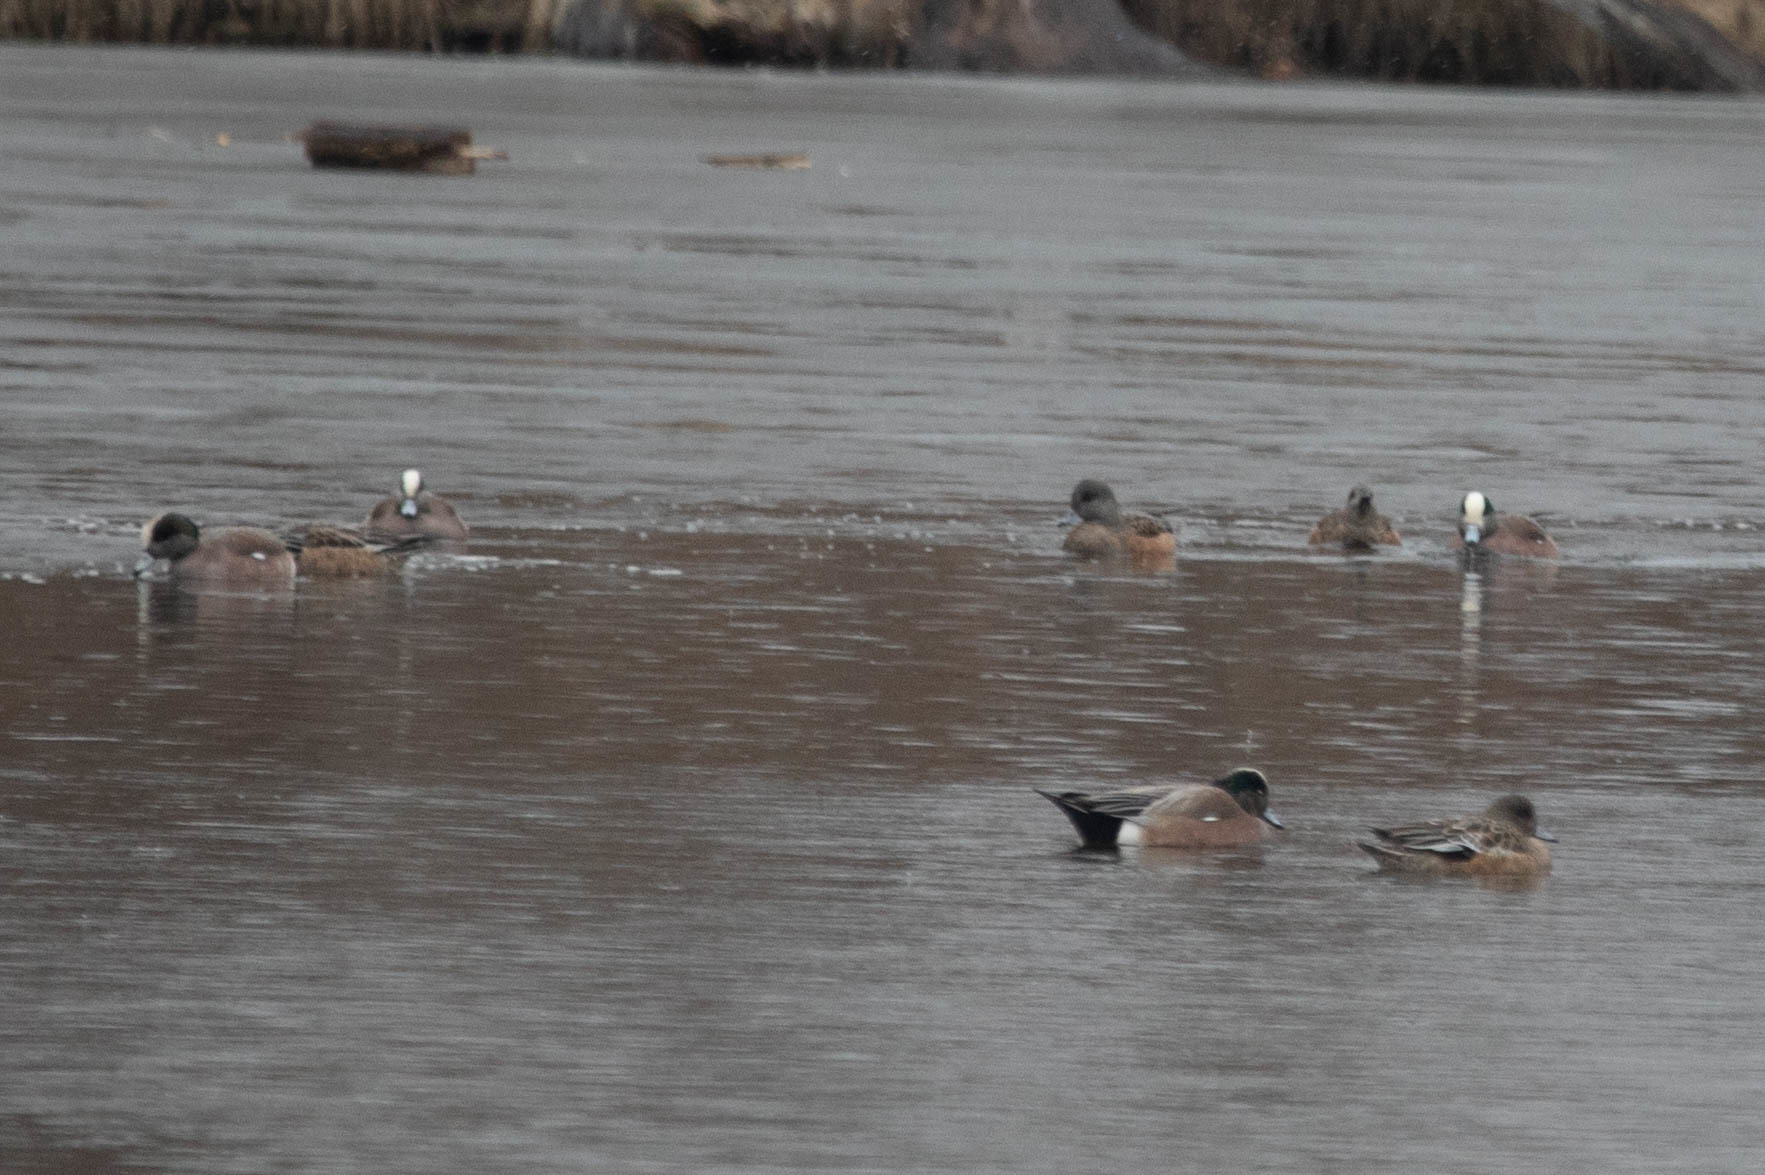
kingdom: Animalia
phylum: Chordata
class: Aves
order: Anseriformes
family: Anatidae
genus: Mareca
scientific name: Mareca americana
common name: American wigeon
